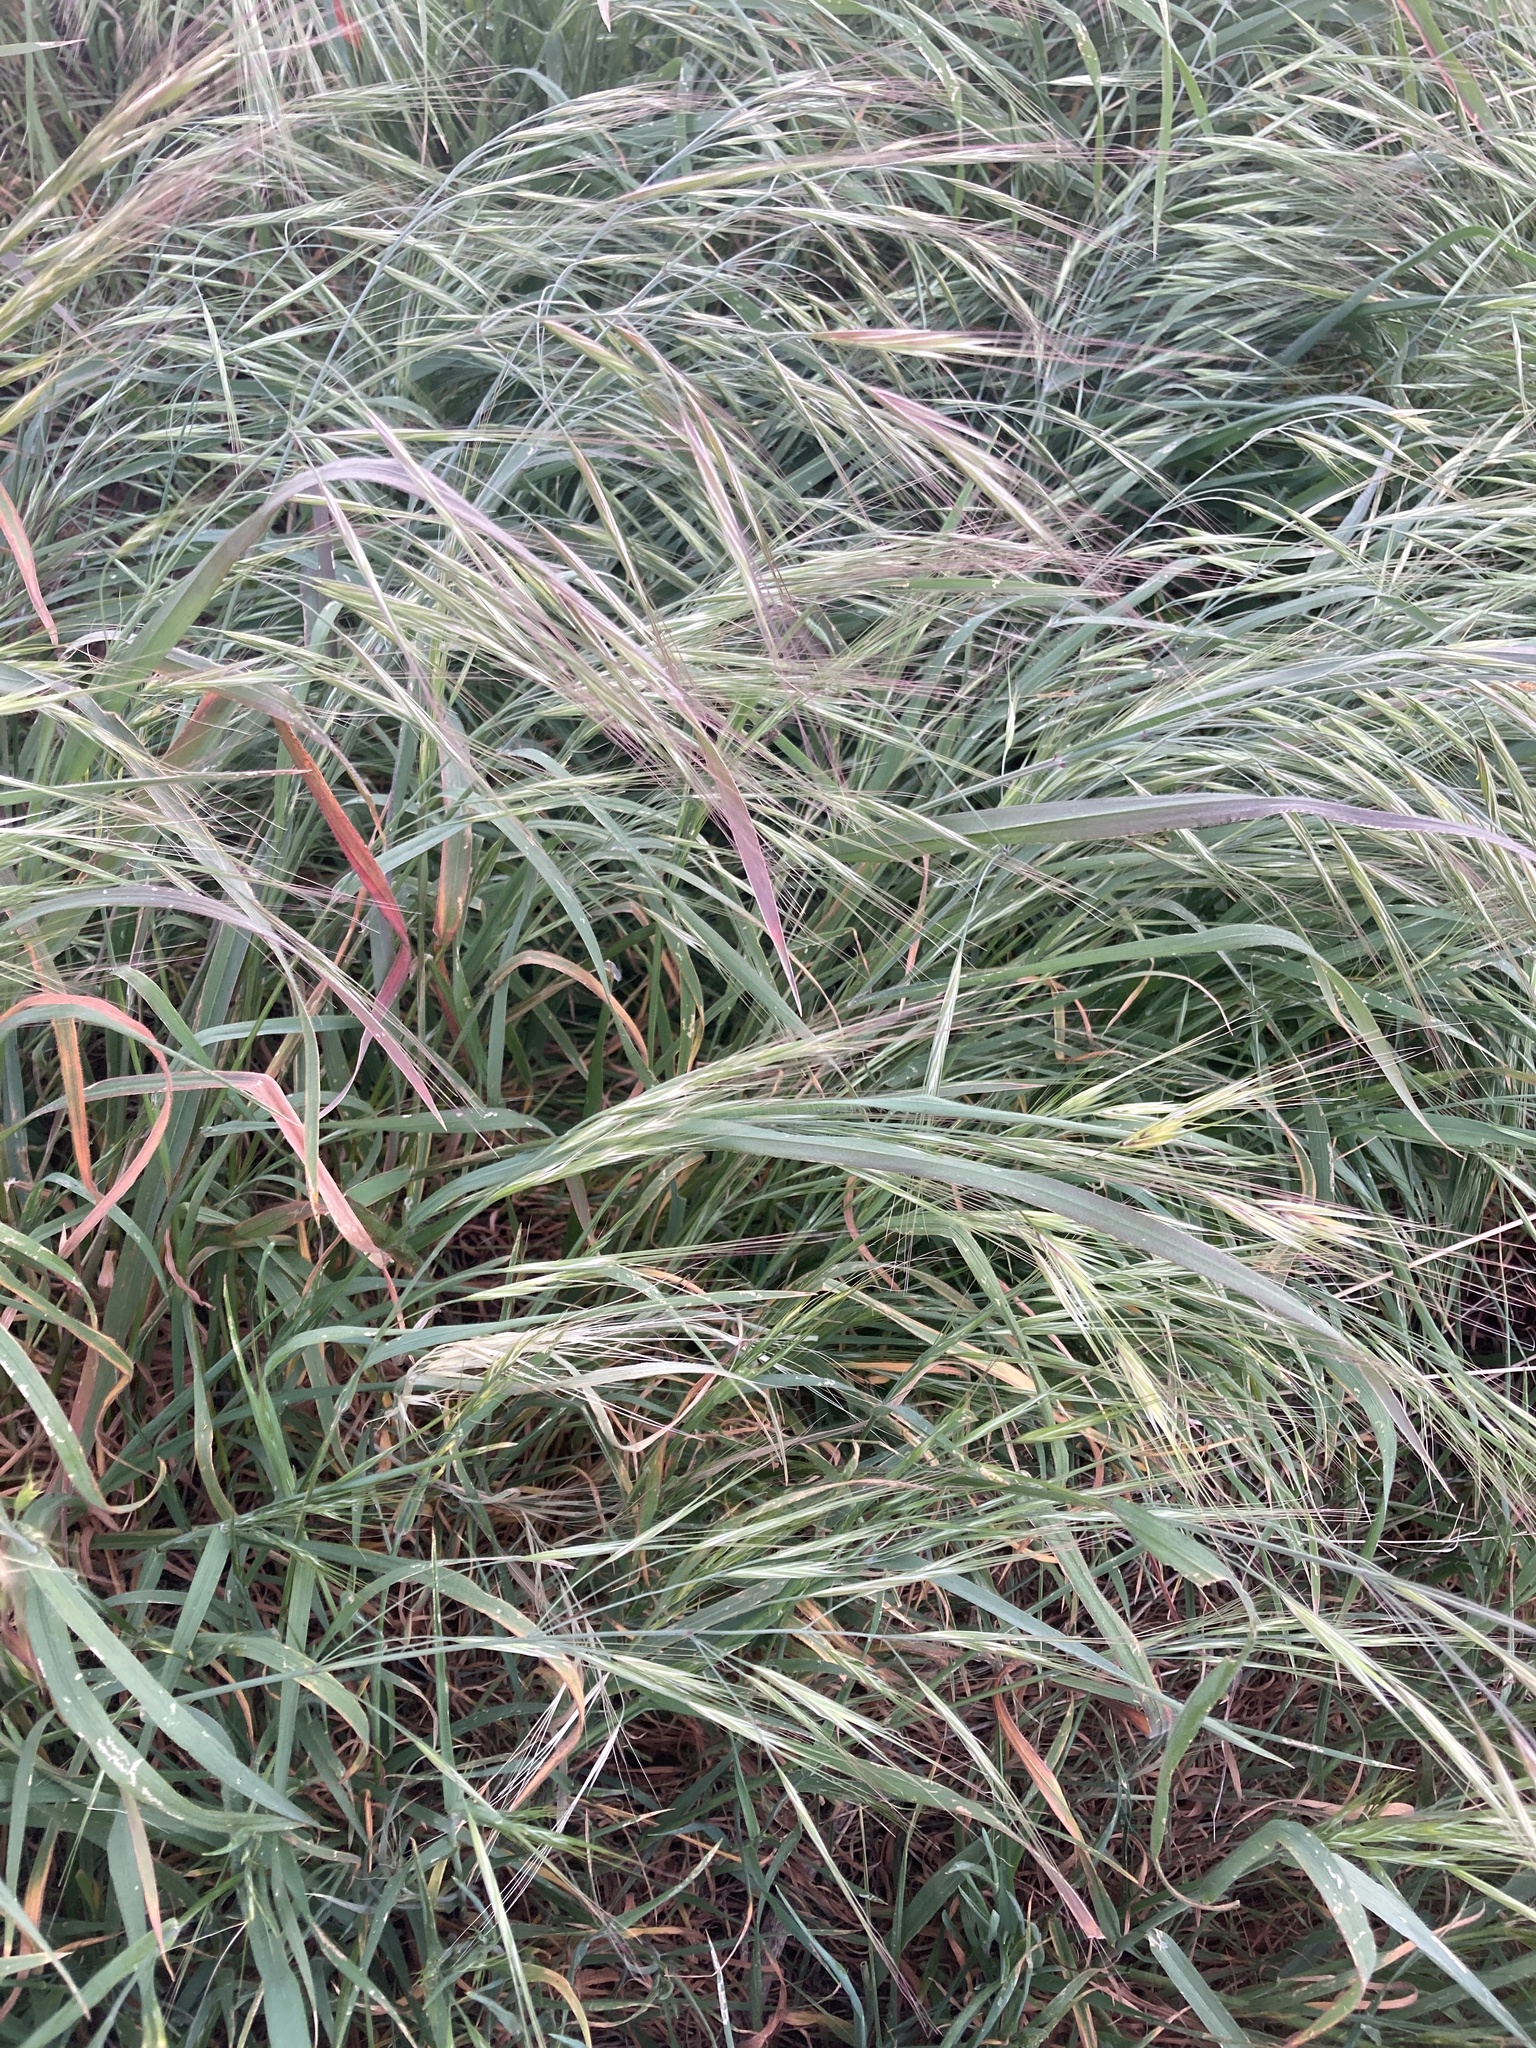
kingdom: Plantae
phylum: Tracheophyta
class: Liliopsida
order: Poales
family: Poaceae
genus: Bromus
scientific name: Bromus diandrus
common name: Ripgut brome
